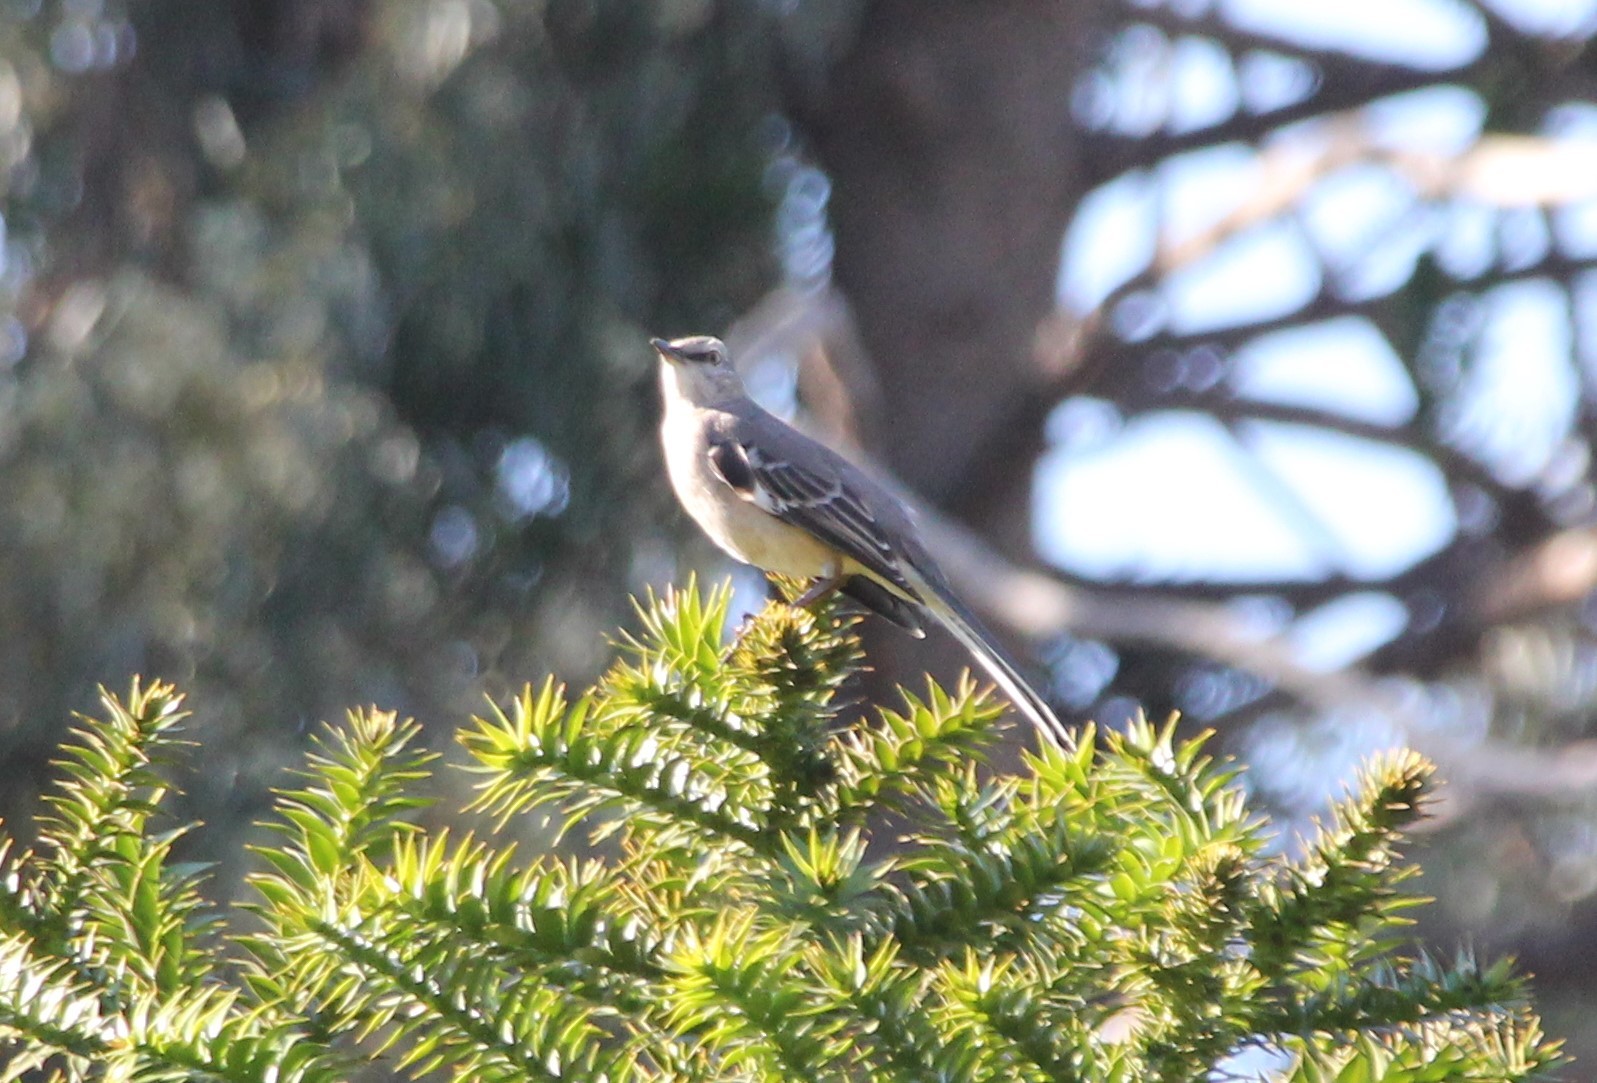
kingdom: Animalia
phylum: Chordata
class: Aves
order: Passeriformes
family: Mimidae
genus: Mimus
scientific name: Mimus polyglottos
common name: Northern mockingbird
